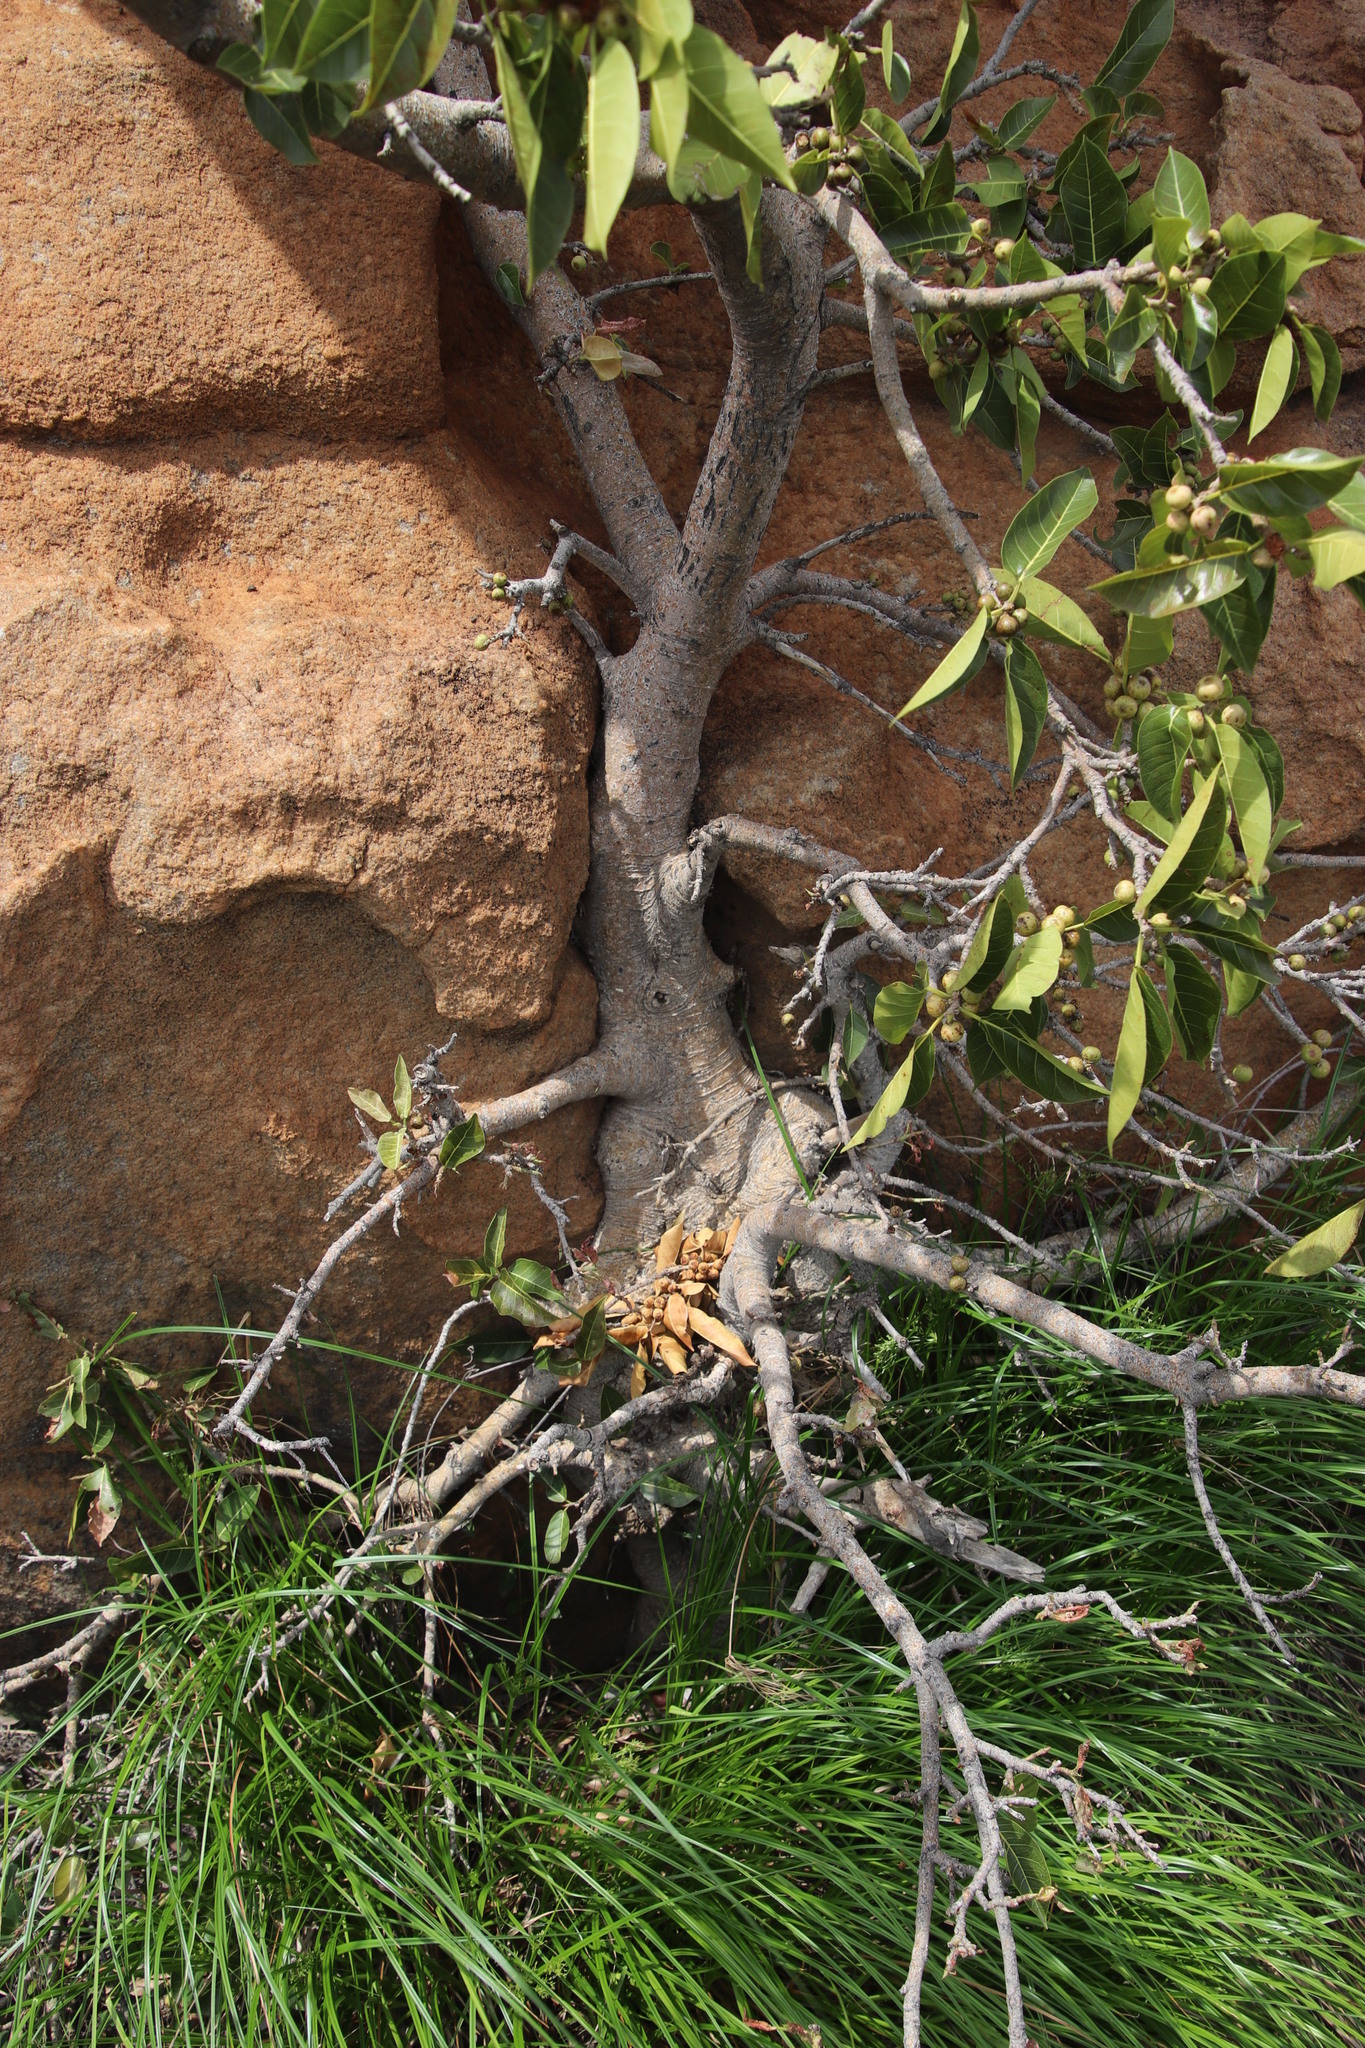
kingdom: Plantae
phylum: Tracheophyta
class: Magnoliopsida
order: Rosales
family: Moraceae
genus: Ficus
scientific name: Ficus ingens
